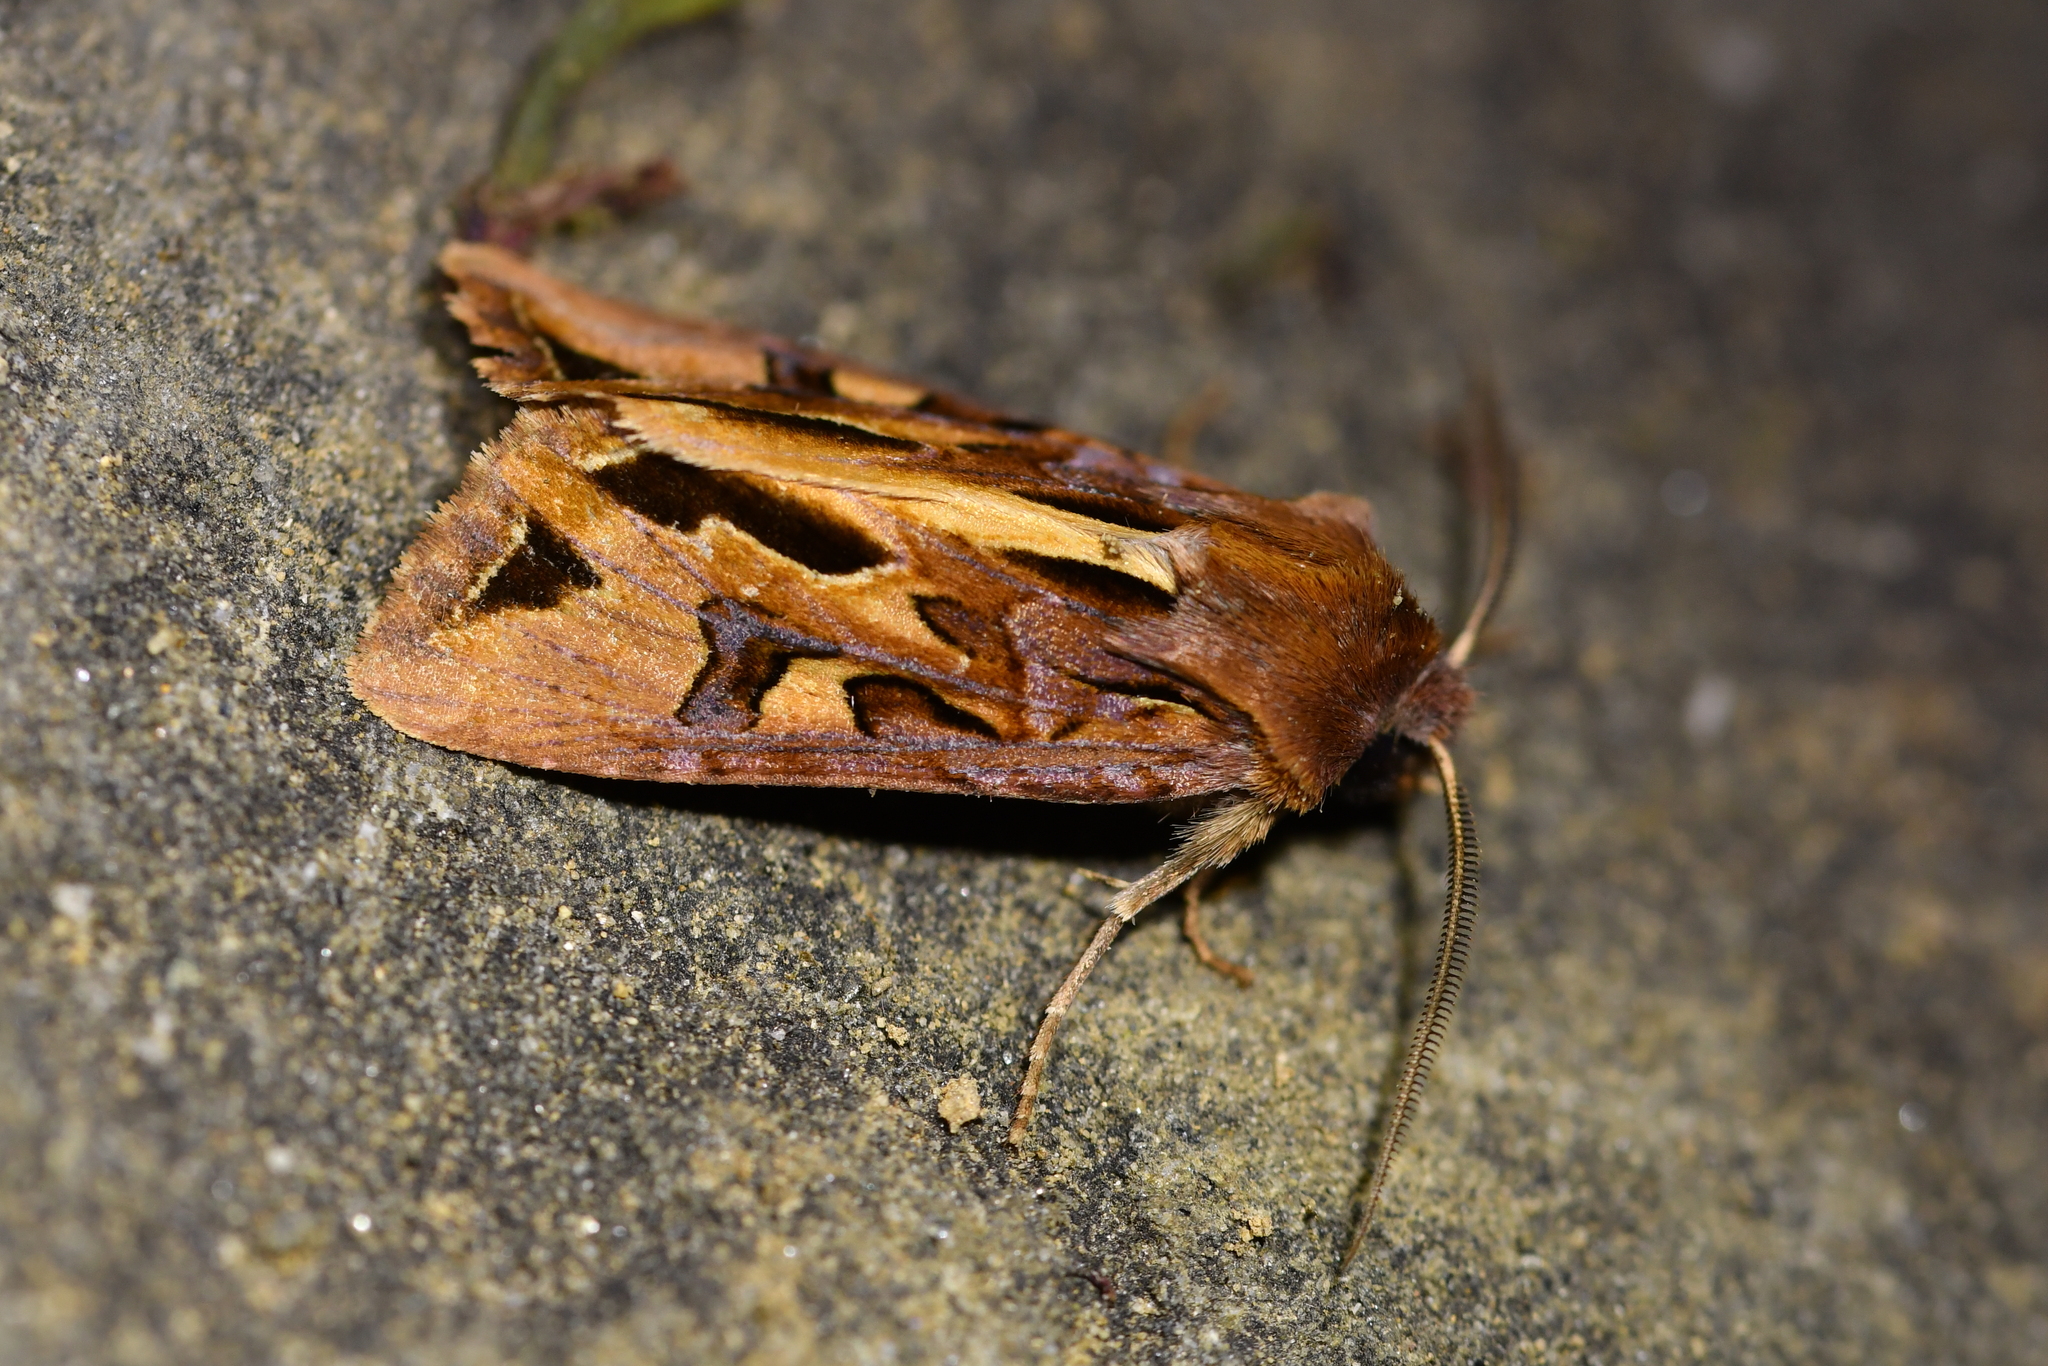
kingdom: Animalia
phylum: Arthropoda
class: Insecta
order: Lepidoptera
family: Noctuidae
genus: Ichneutica
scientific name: Ichneutica
